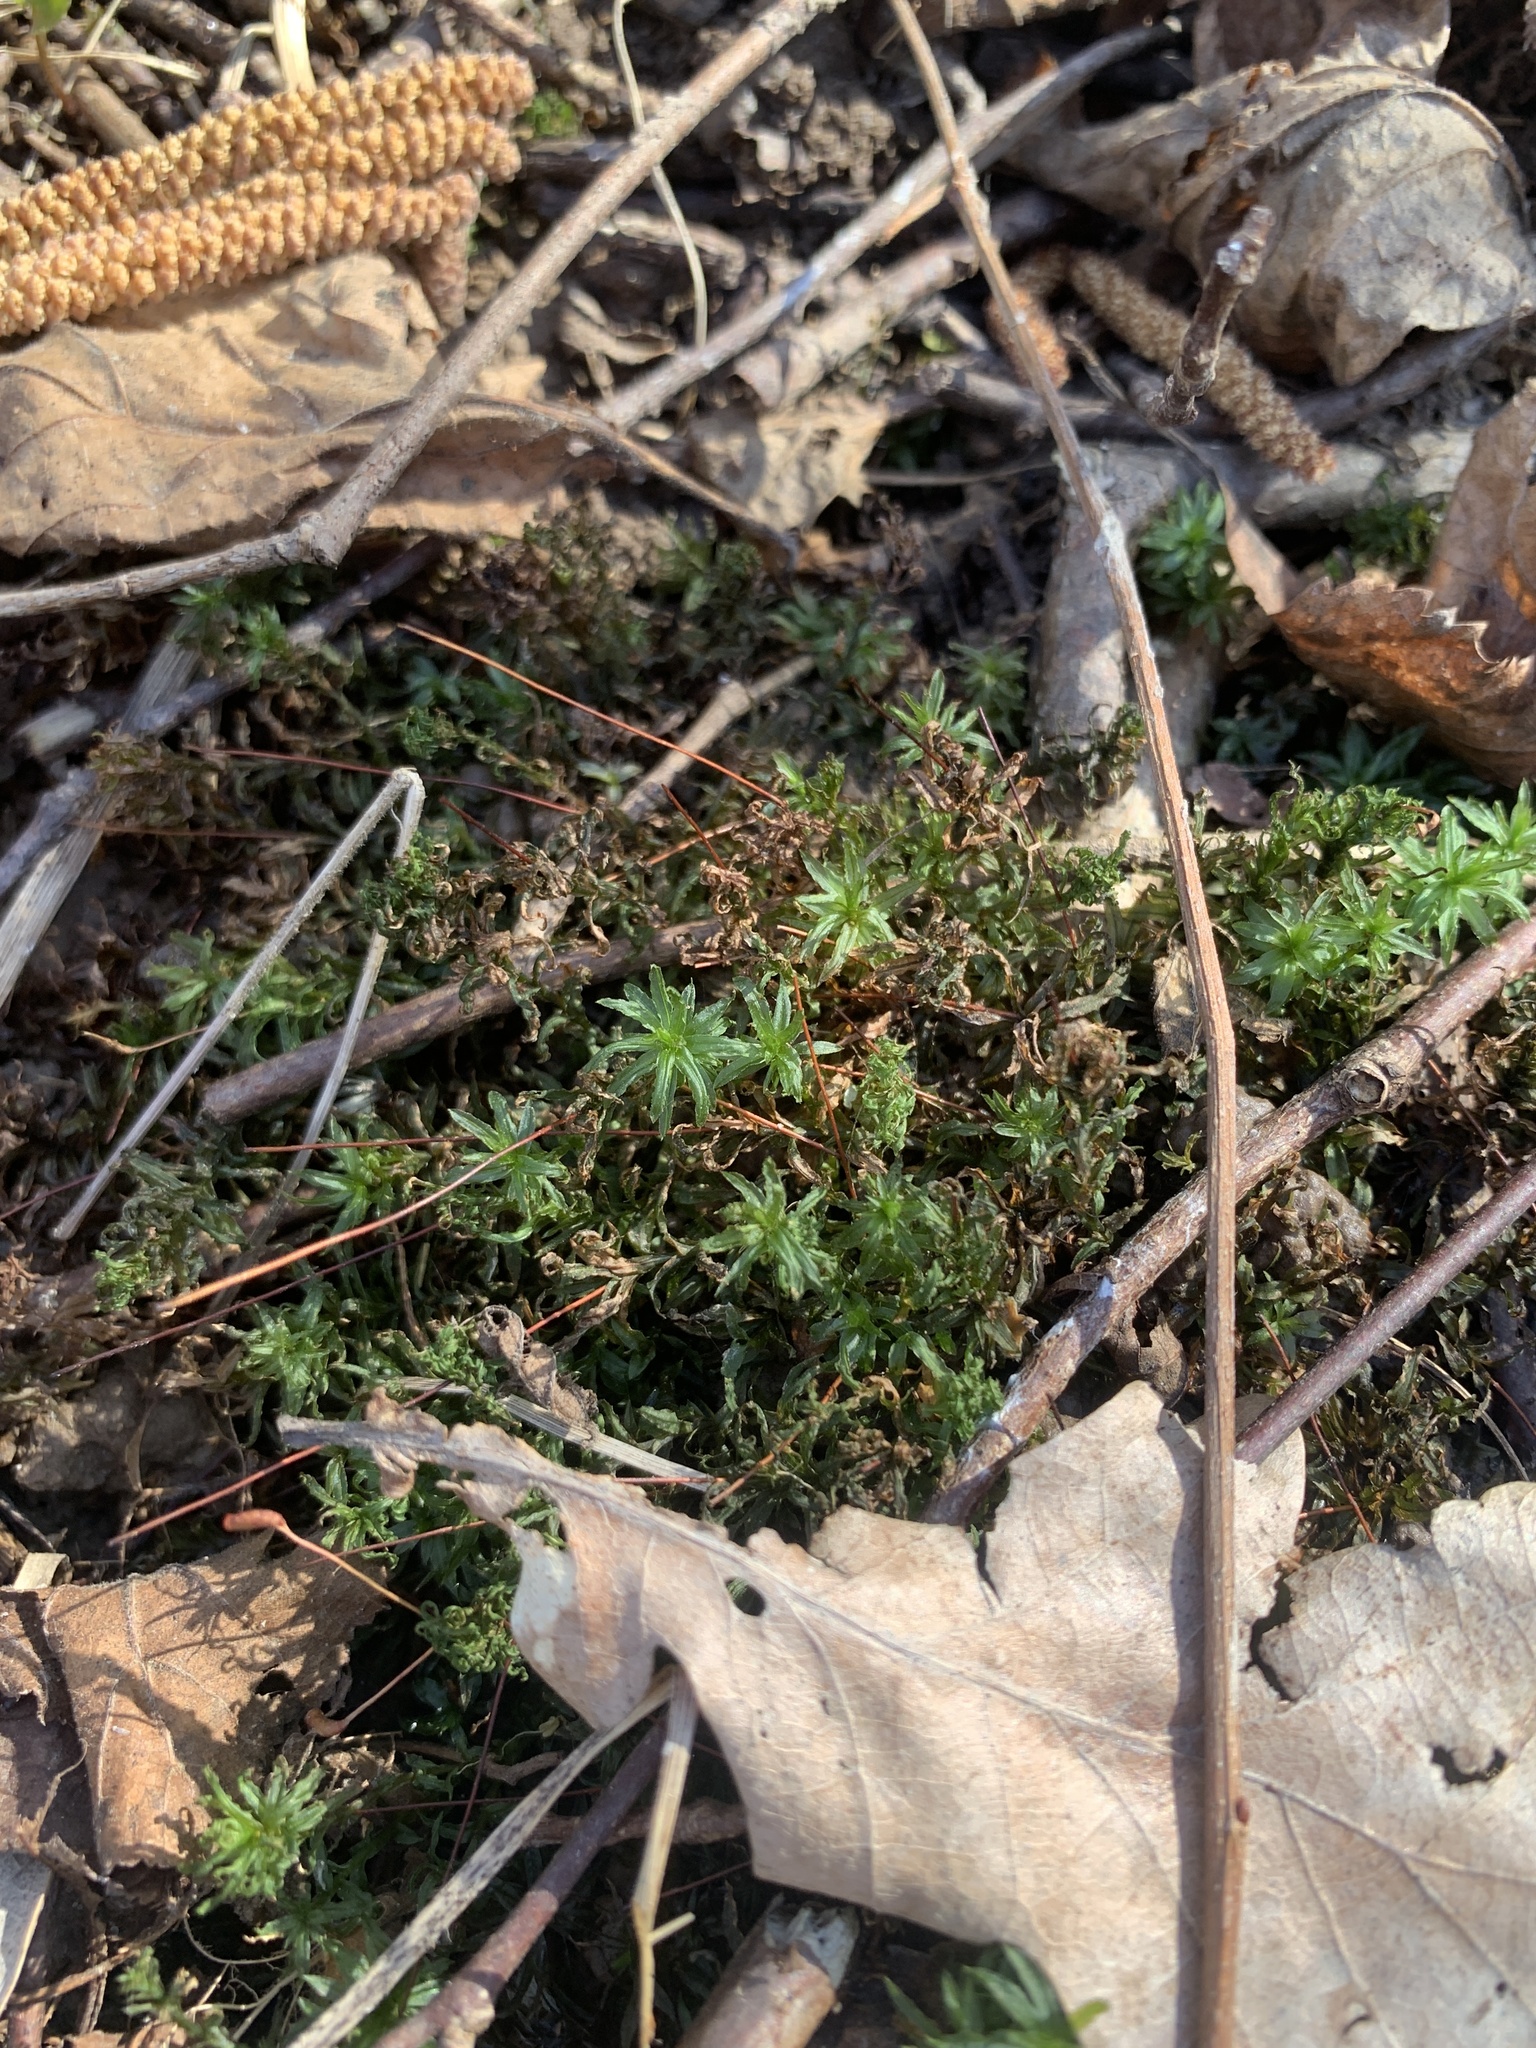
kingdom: Plantae
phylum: Bryophyta
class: Polytrichopsida
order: Polytrichales
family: Polytrichaceae
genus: Atrichum
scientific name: Atrichum undulatum
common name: Common smoothcap
